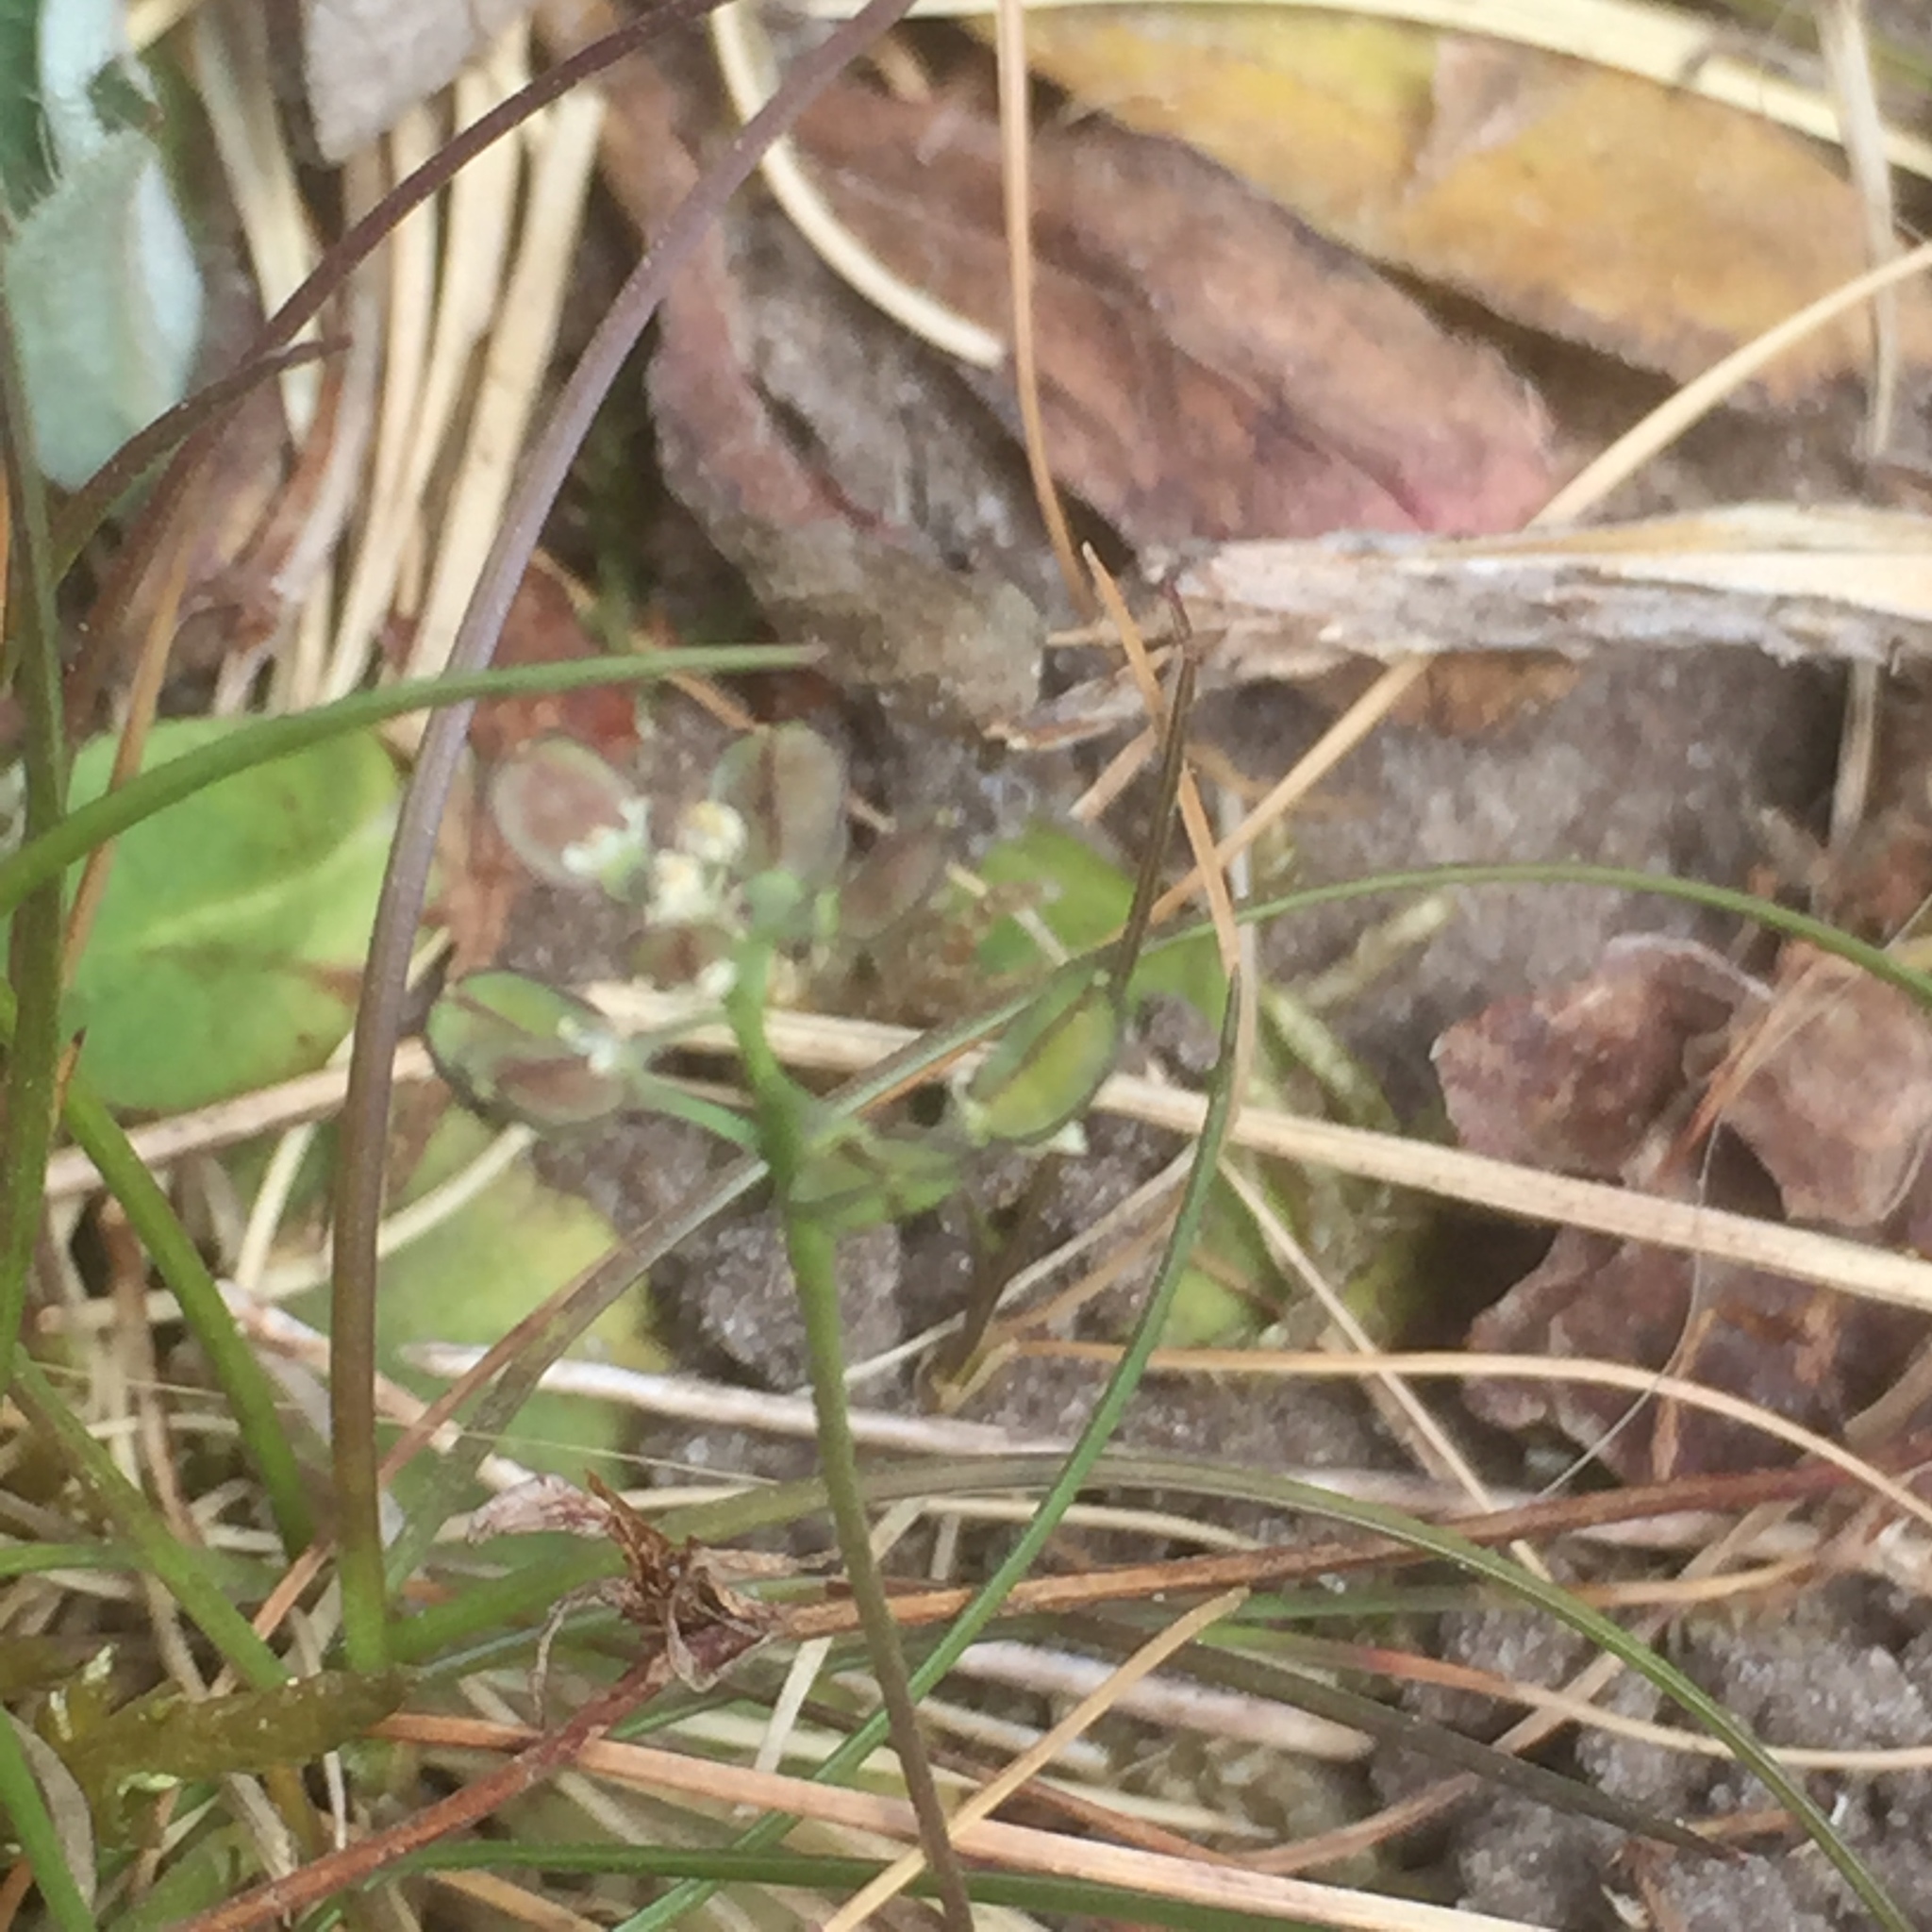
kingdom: Plantae
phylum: Tracheophyta
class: Magnoliopsida
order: Brassicales
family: Brassicaceae
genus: Teesdalia
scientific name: Teesdalia nudicaulis
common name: Shepherd's cress
